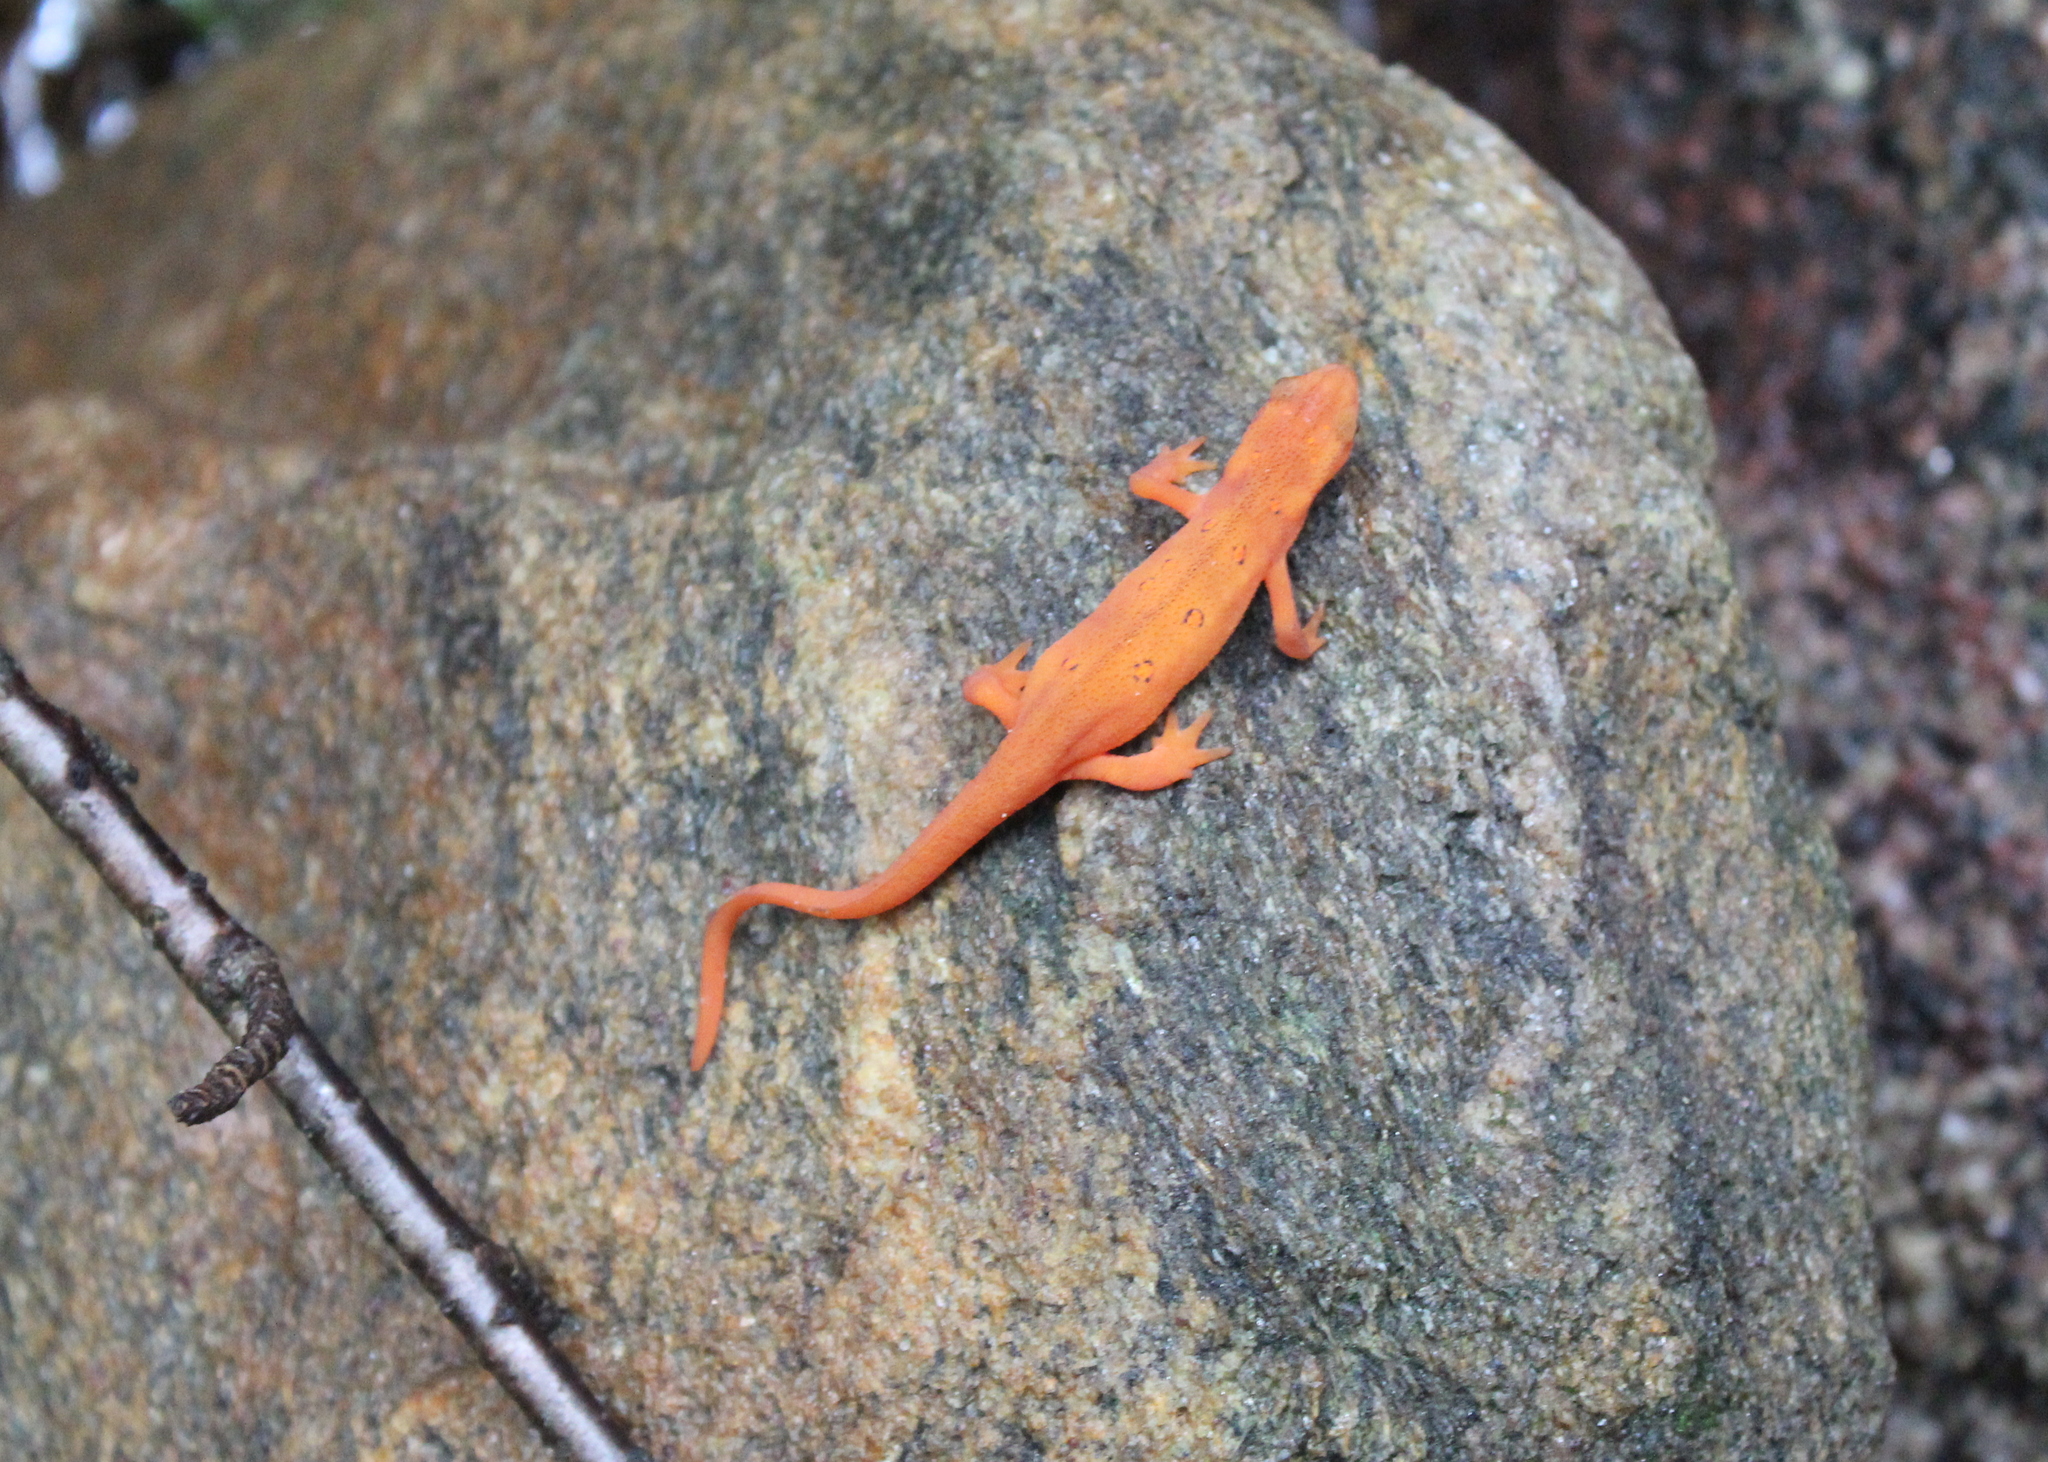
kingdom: Animalia
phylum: Chordata
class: Amphibia
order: Caudata
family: Salamandridae
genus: Notophthalmus
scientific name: Notophthalmus viridescens
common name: Eastern newt
